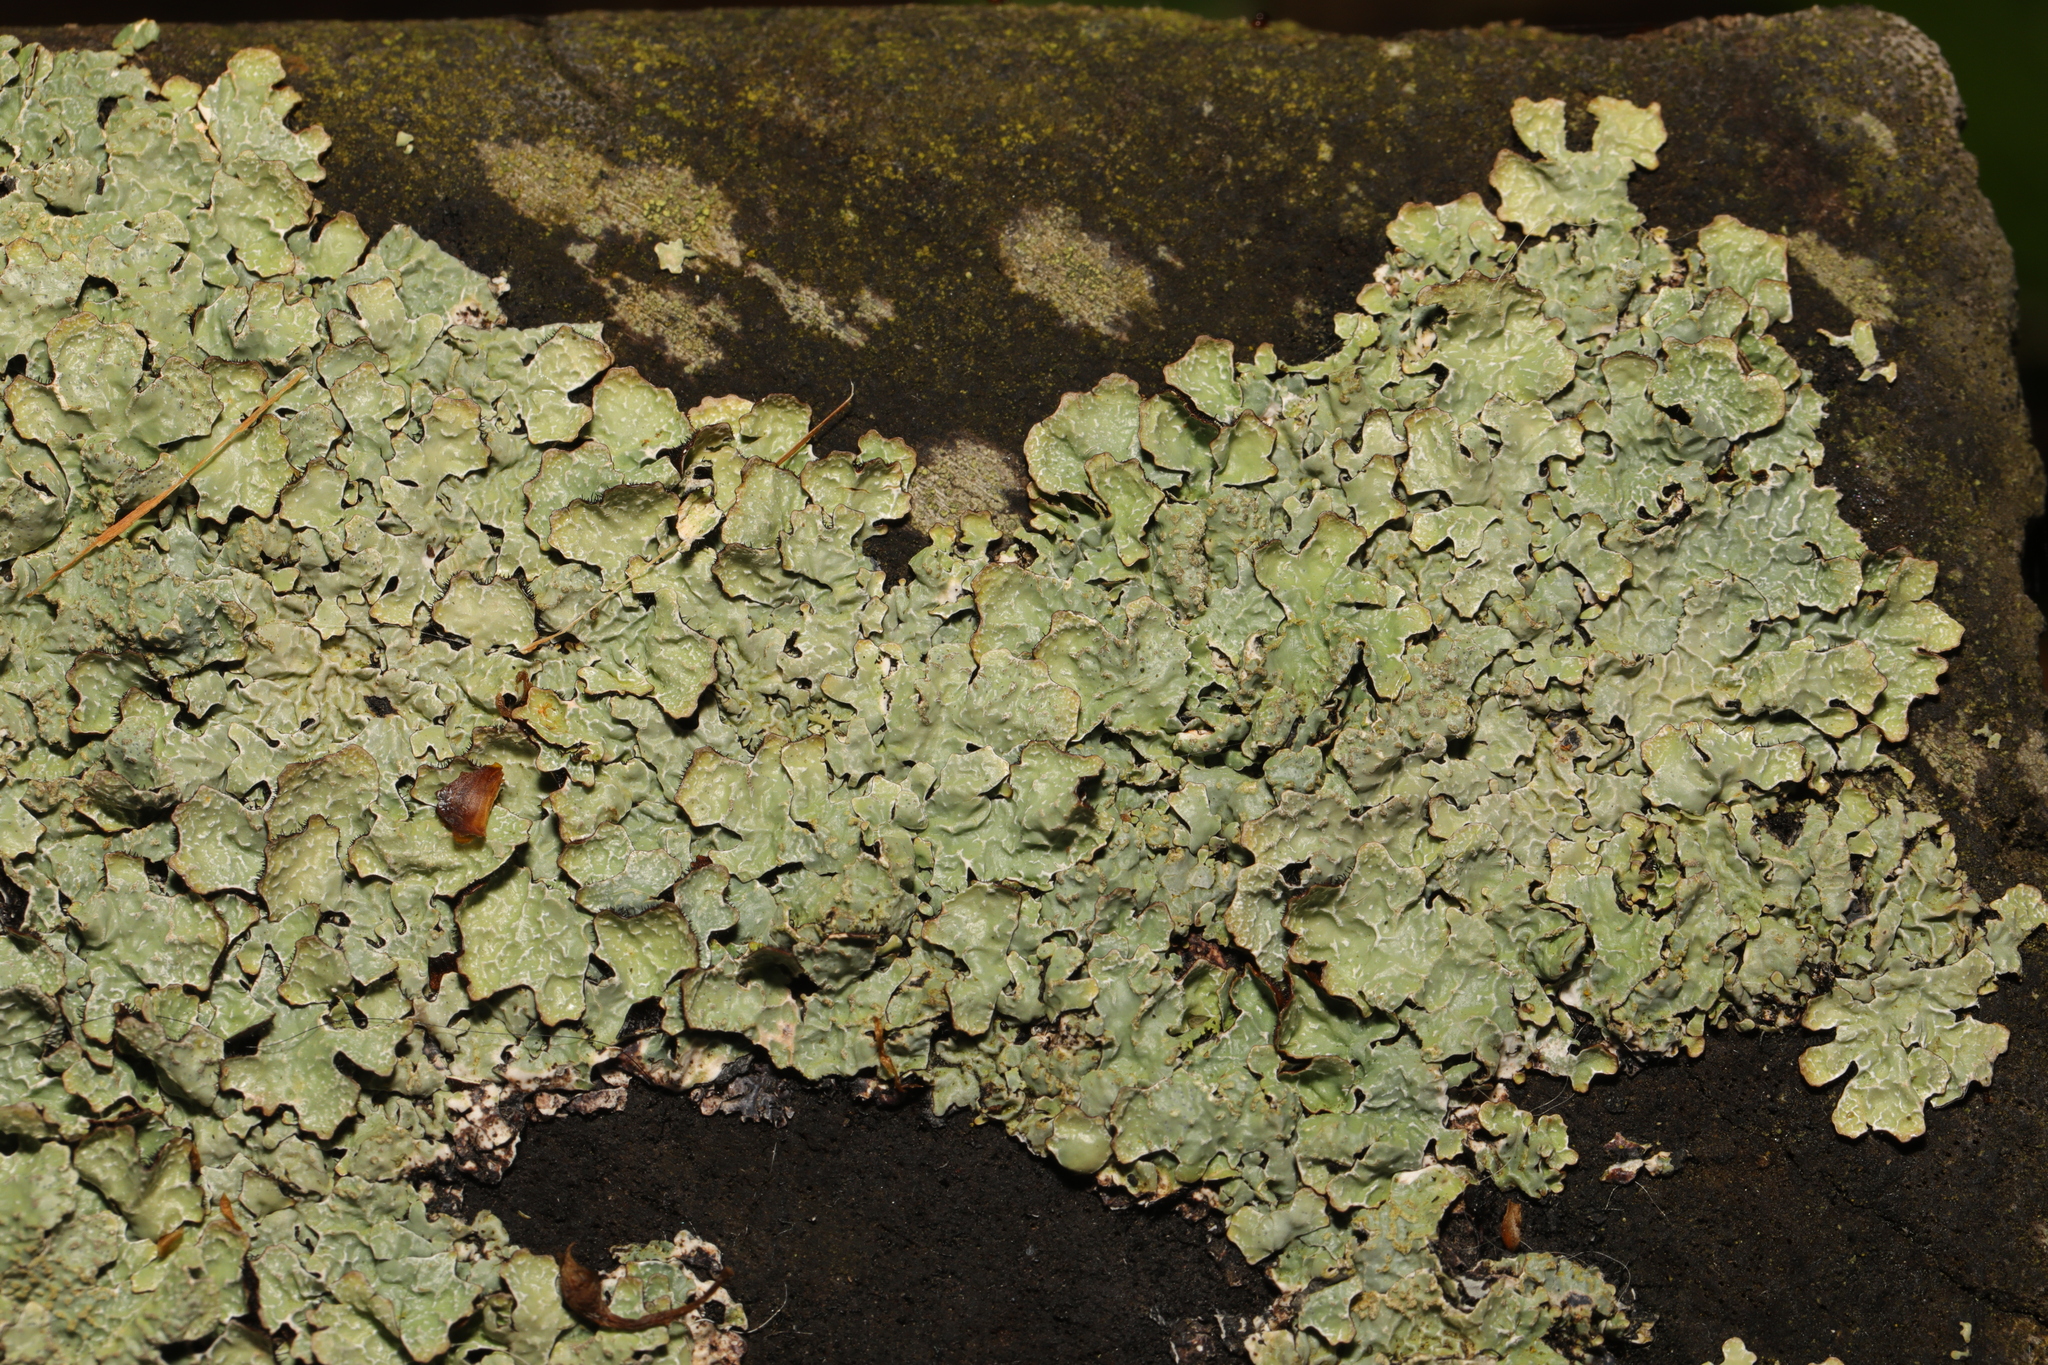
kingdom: Fungi
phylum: Ascomycota
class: Lecanoromycetes
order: Lecanorales
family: Parmeliaceae
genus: Parmelia
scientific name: Parmelia sulcata
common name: Netted shield lichen
